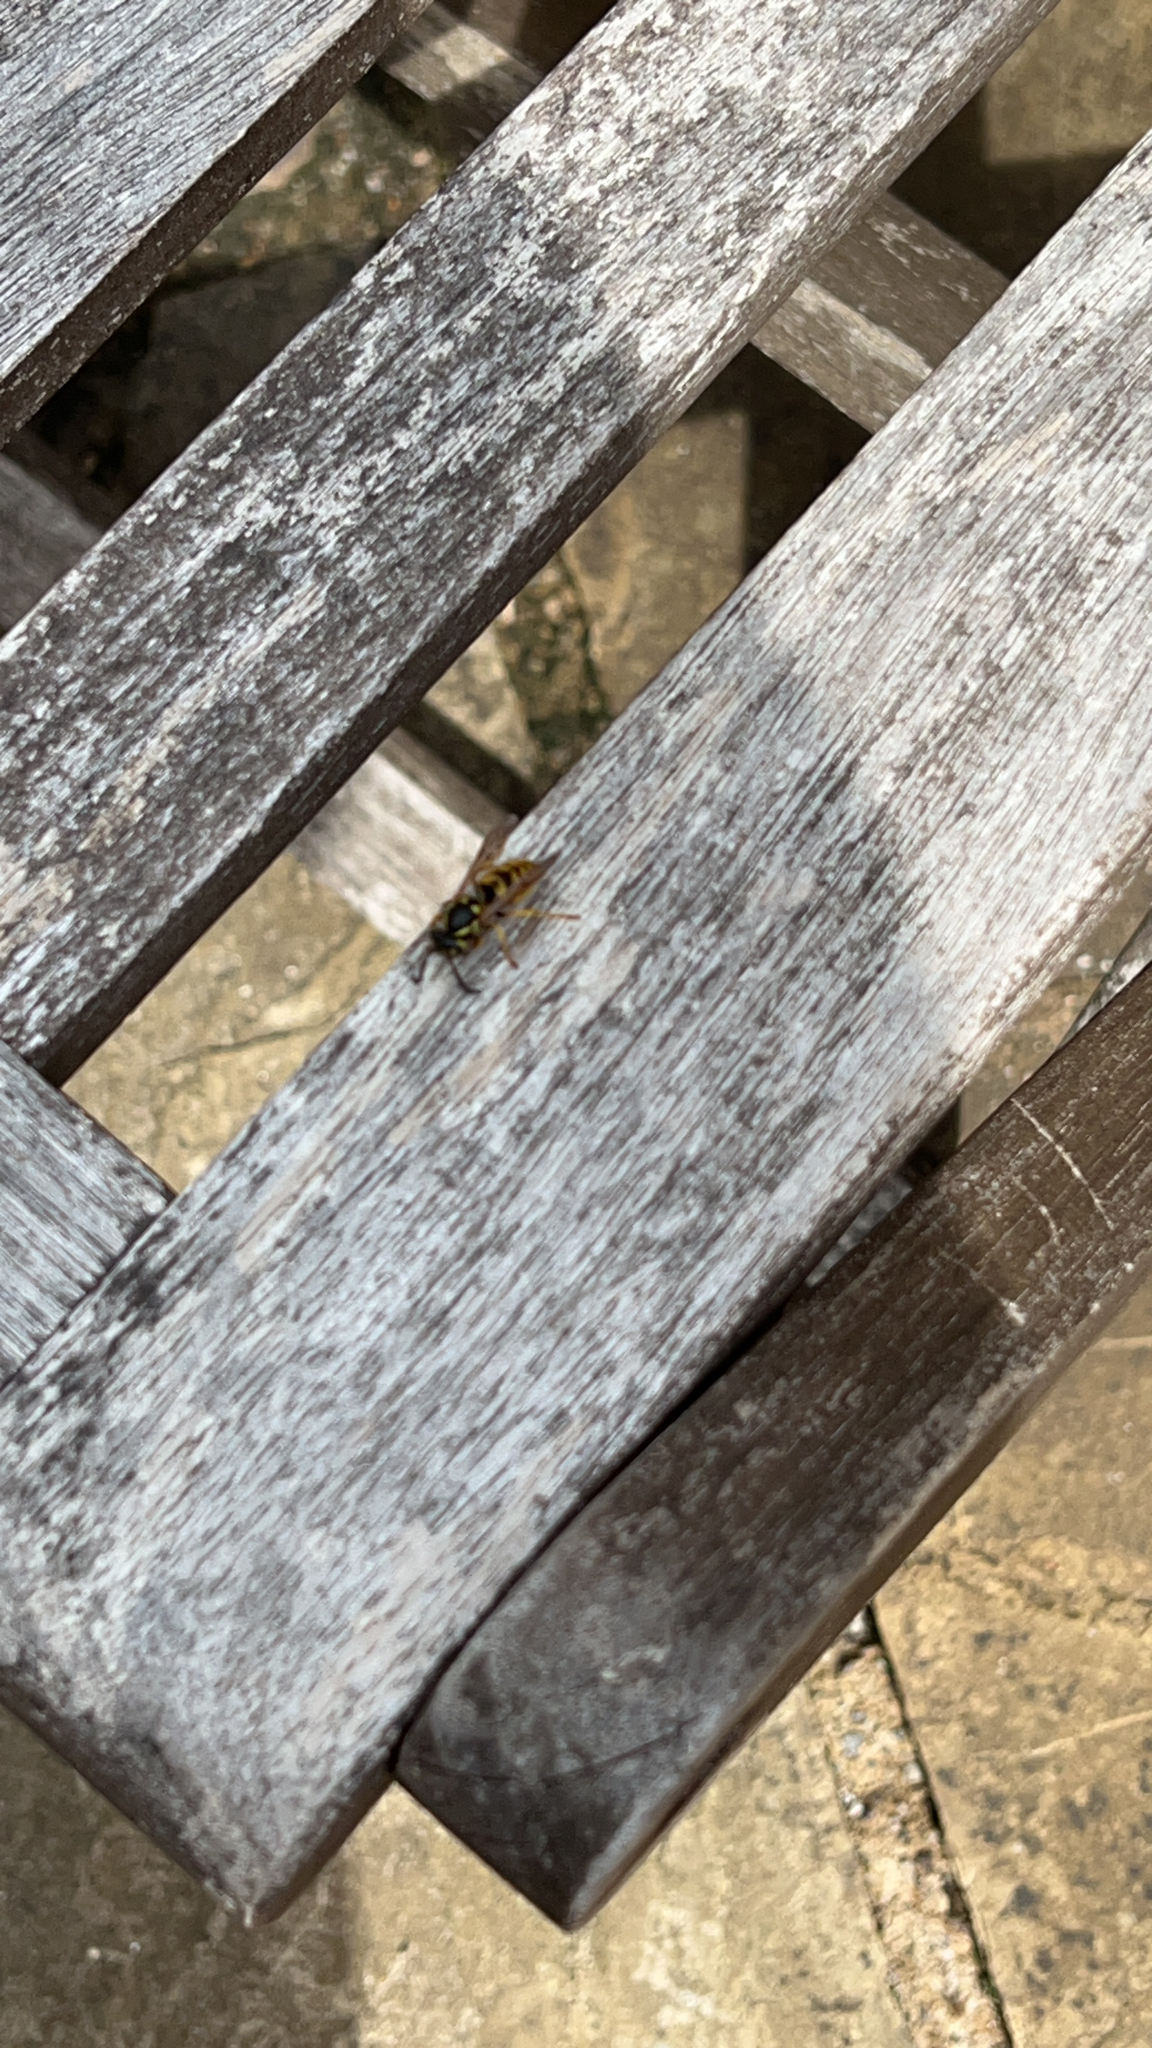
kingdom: Animalia
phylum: Arthropoda
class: Insecta
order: Hymenoptera
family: Vespidae
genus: Vespula
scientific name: Vespula germanica
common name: German wasp
